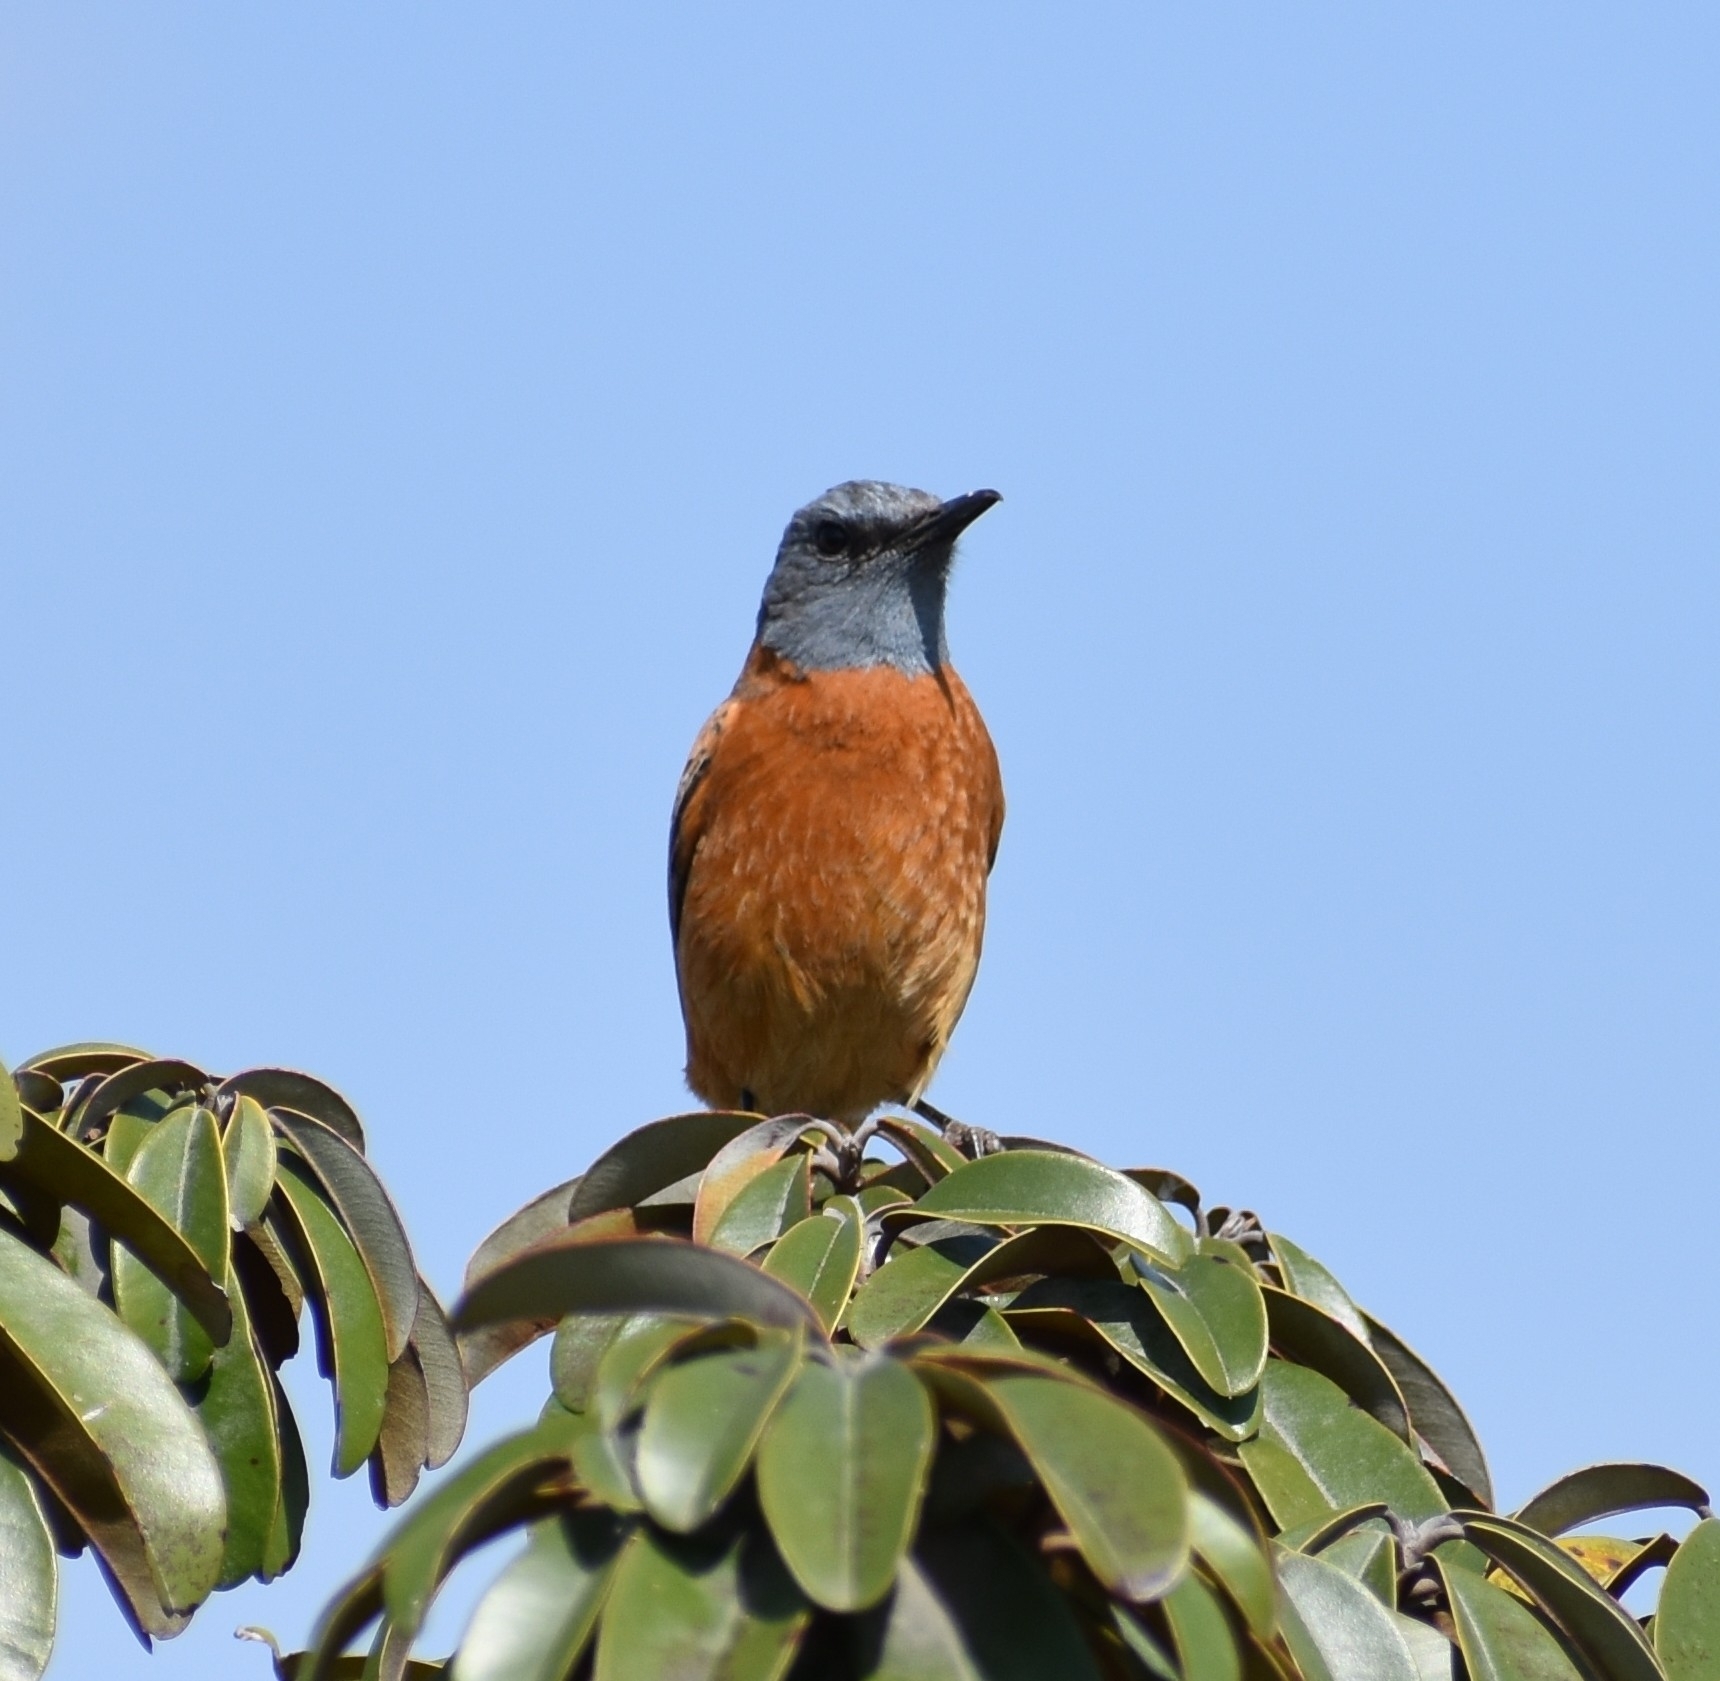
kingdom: Animalia
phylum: Chordata
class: Aves
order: Passeriformes
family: Muscicapidae
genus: Monticola
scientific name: Monticola rupestris
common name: Cape rock thrush
